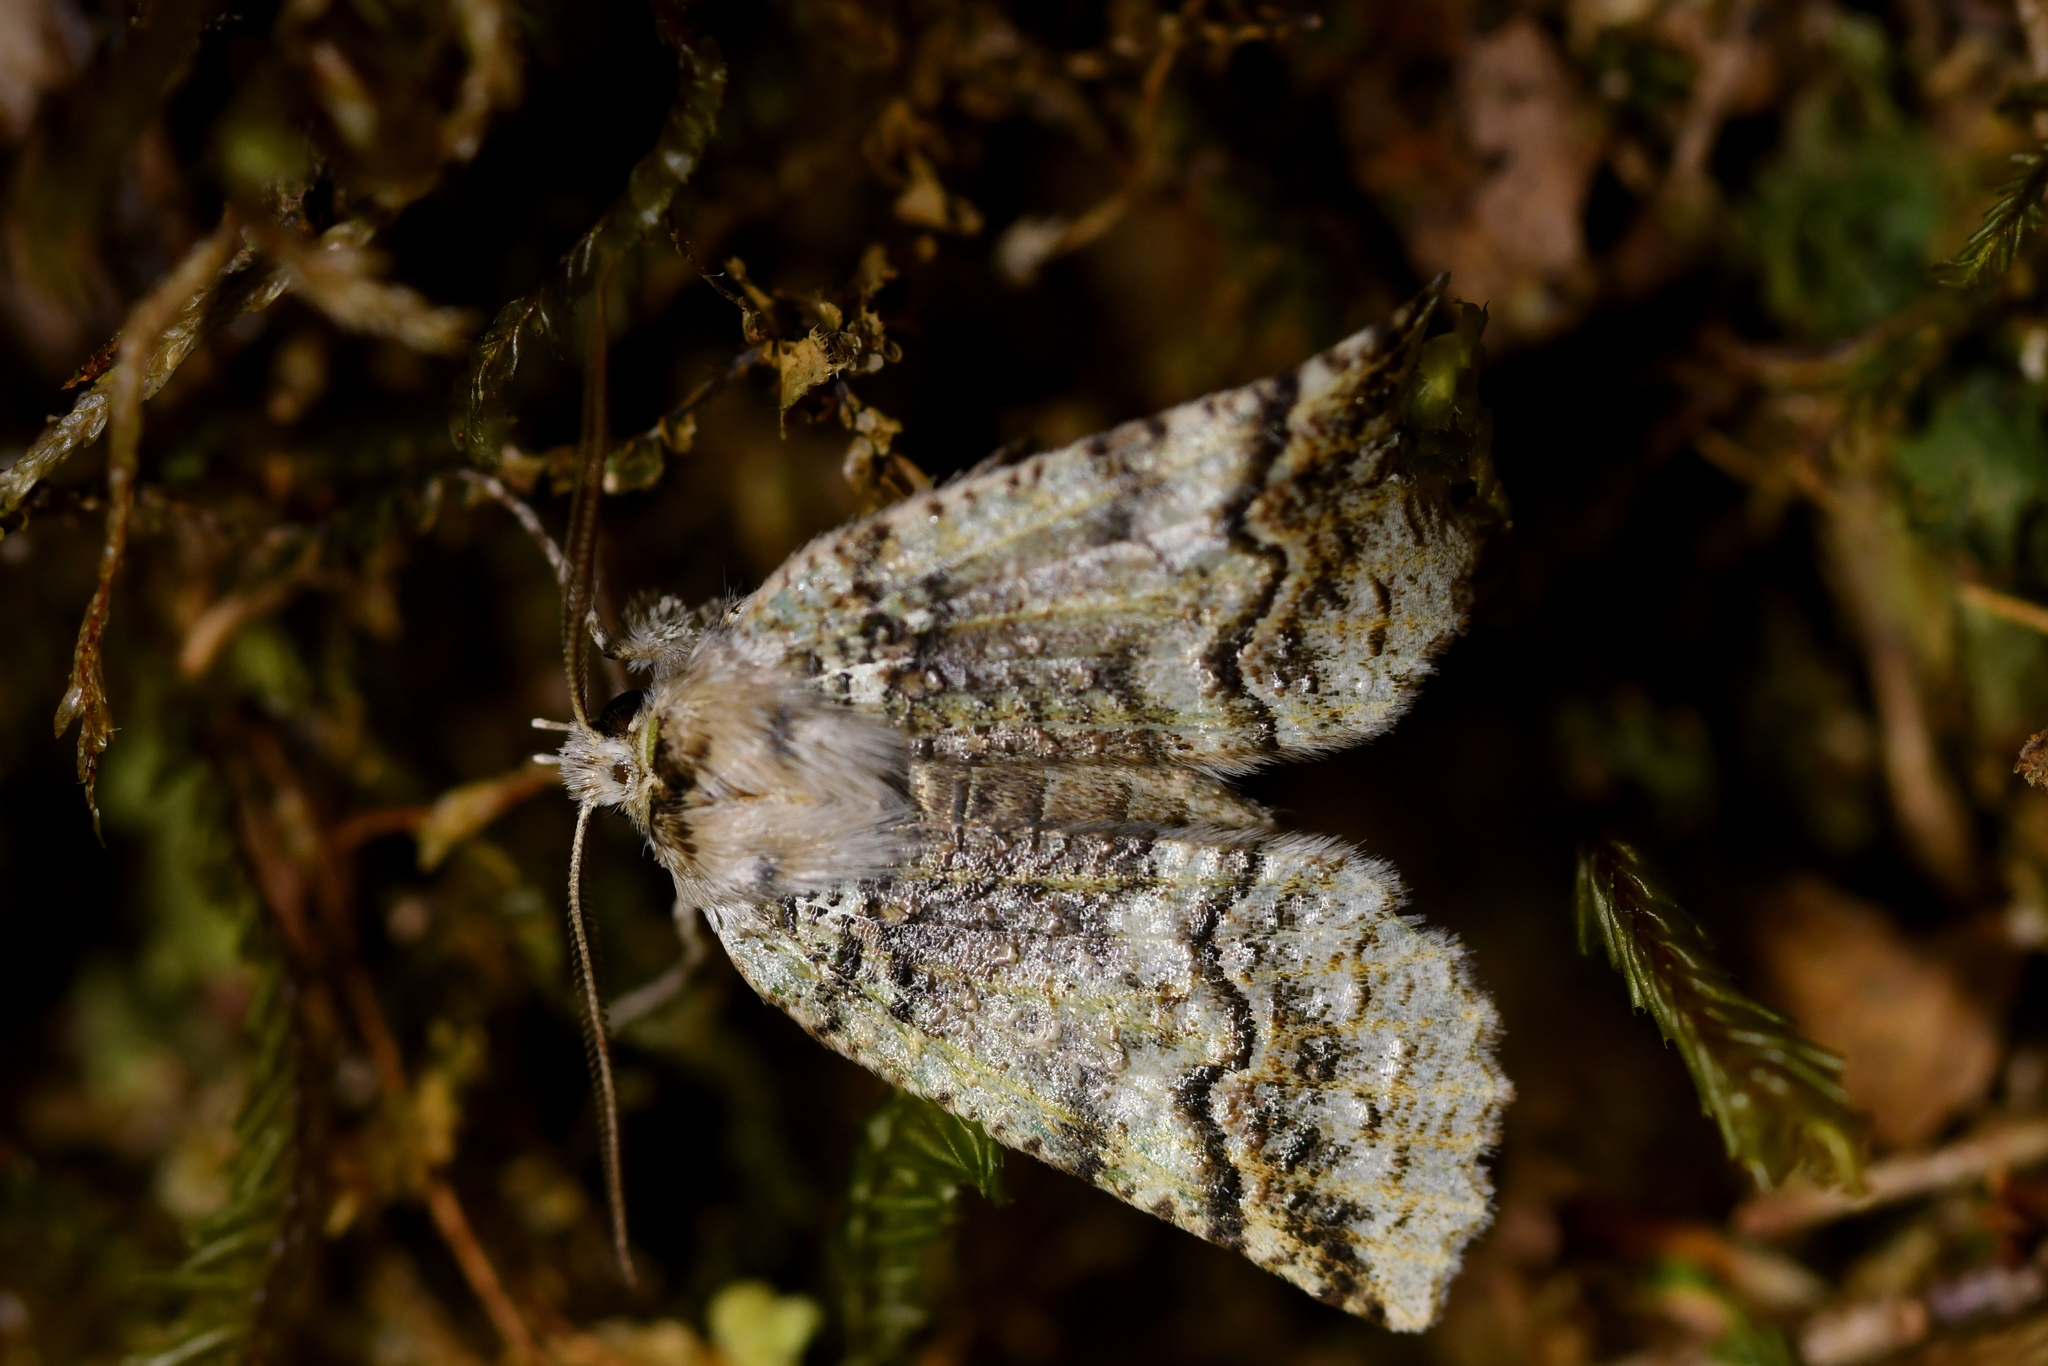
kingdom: Animalia
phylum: Arthropoda
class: Insecta
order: Lepidoptera
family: Geometridae
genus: Declana
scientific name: Declana floccosa
